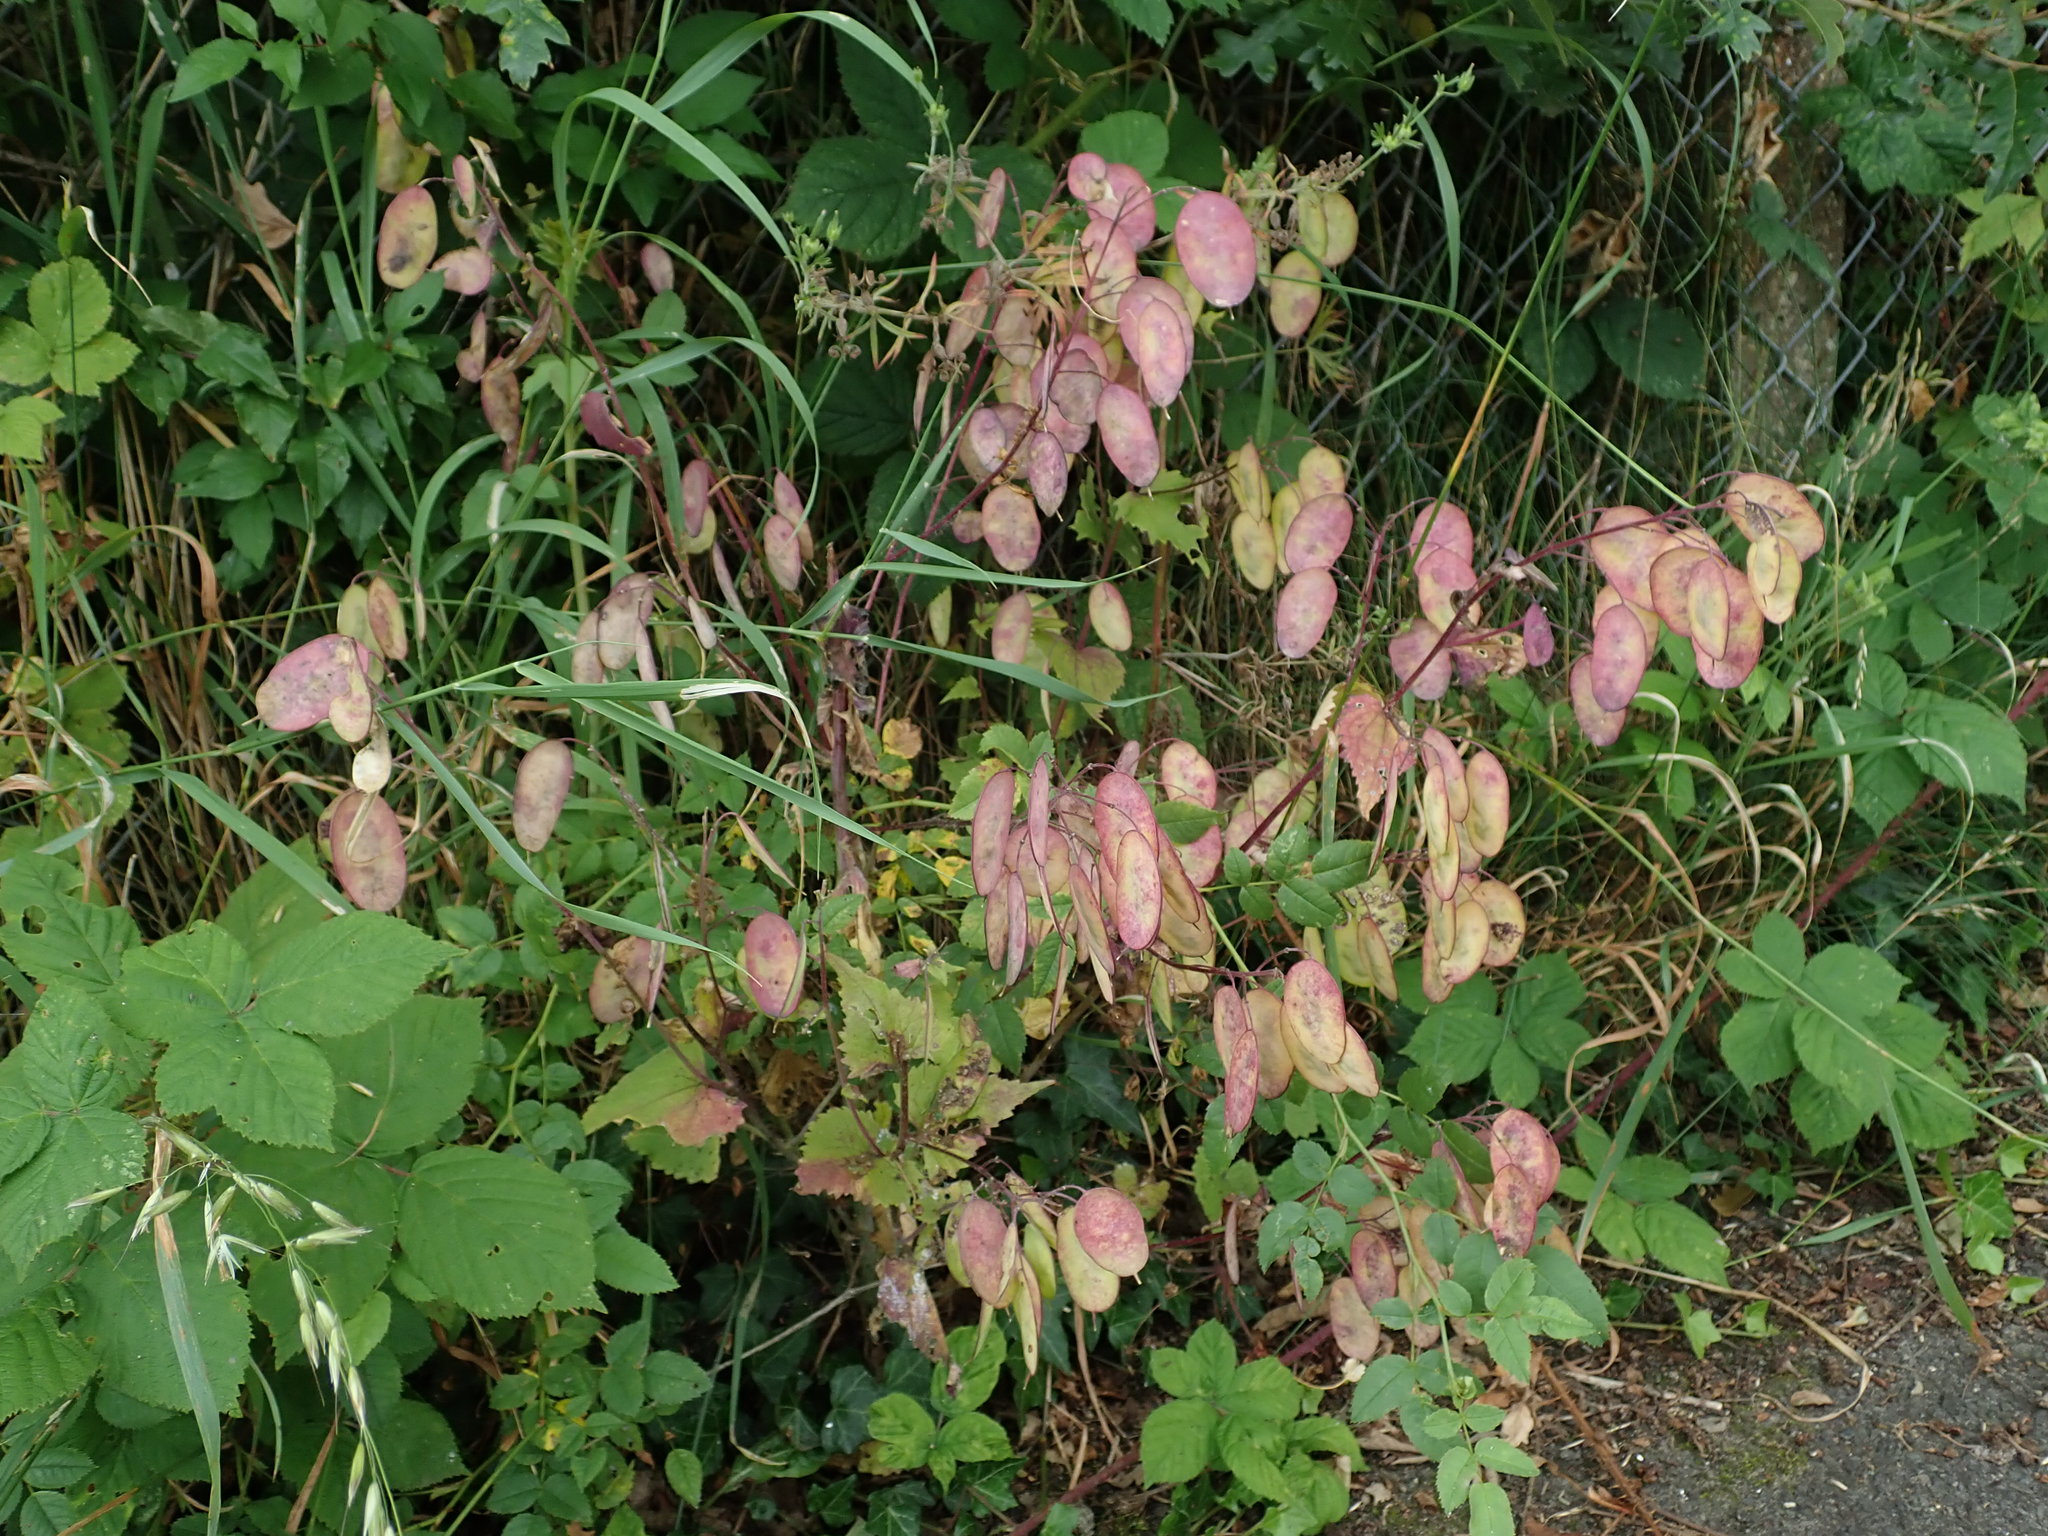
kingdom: Plantae
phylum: Tracheophyta
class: Magnoliopsida
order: Brassicales
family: Brassicaceae
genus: Lunaria
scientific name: Lunaria annua
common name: Honesty
